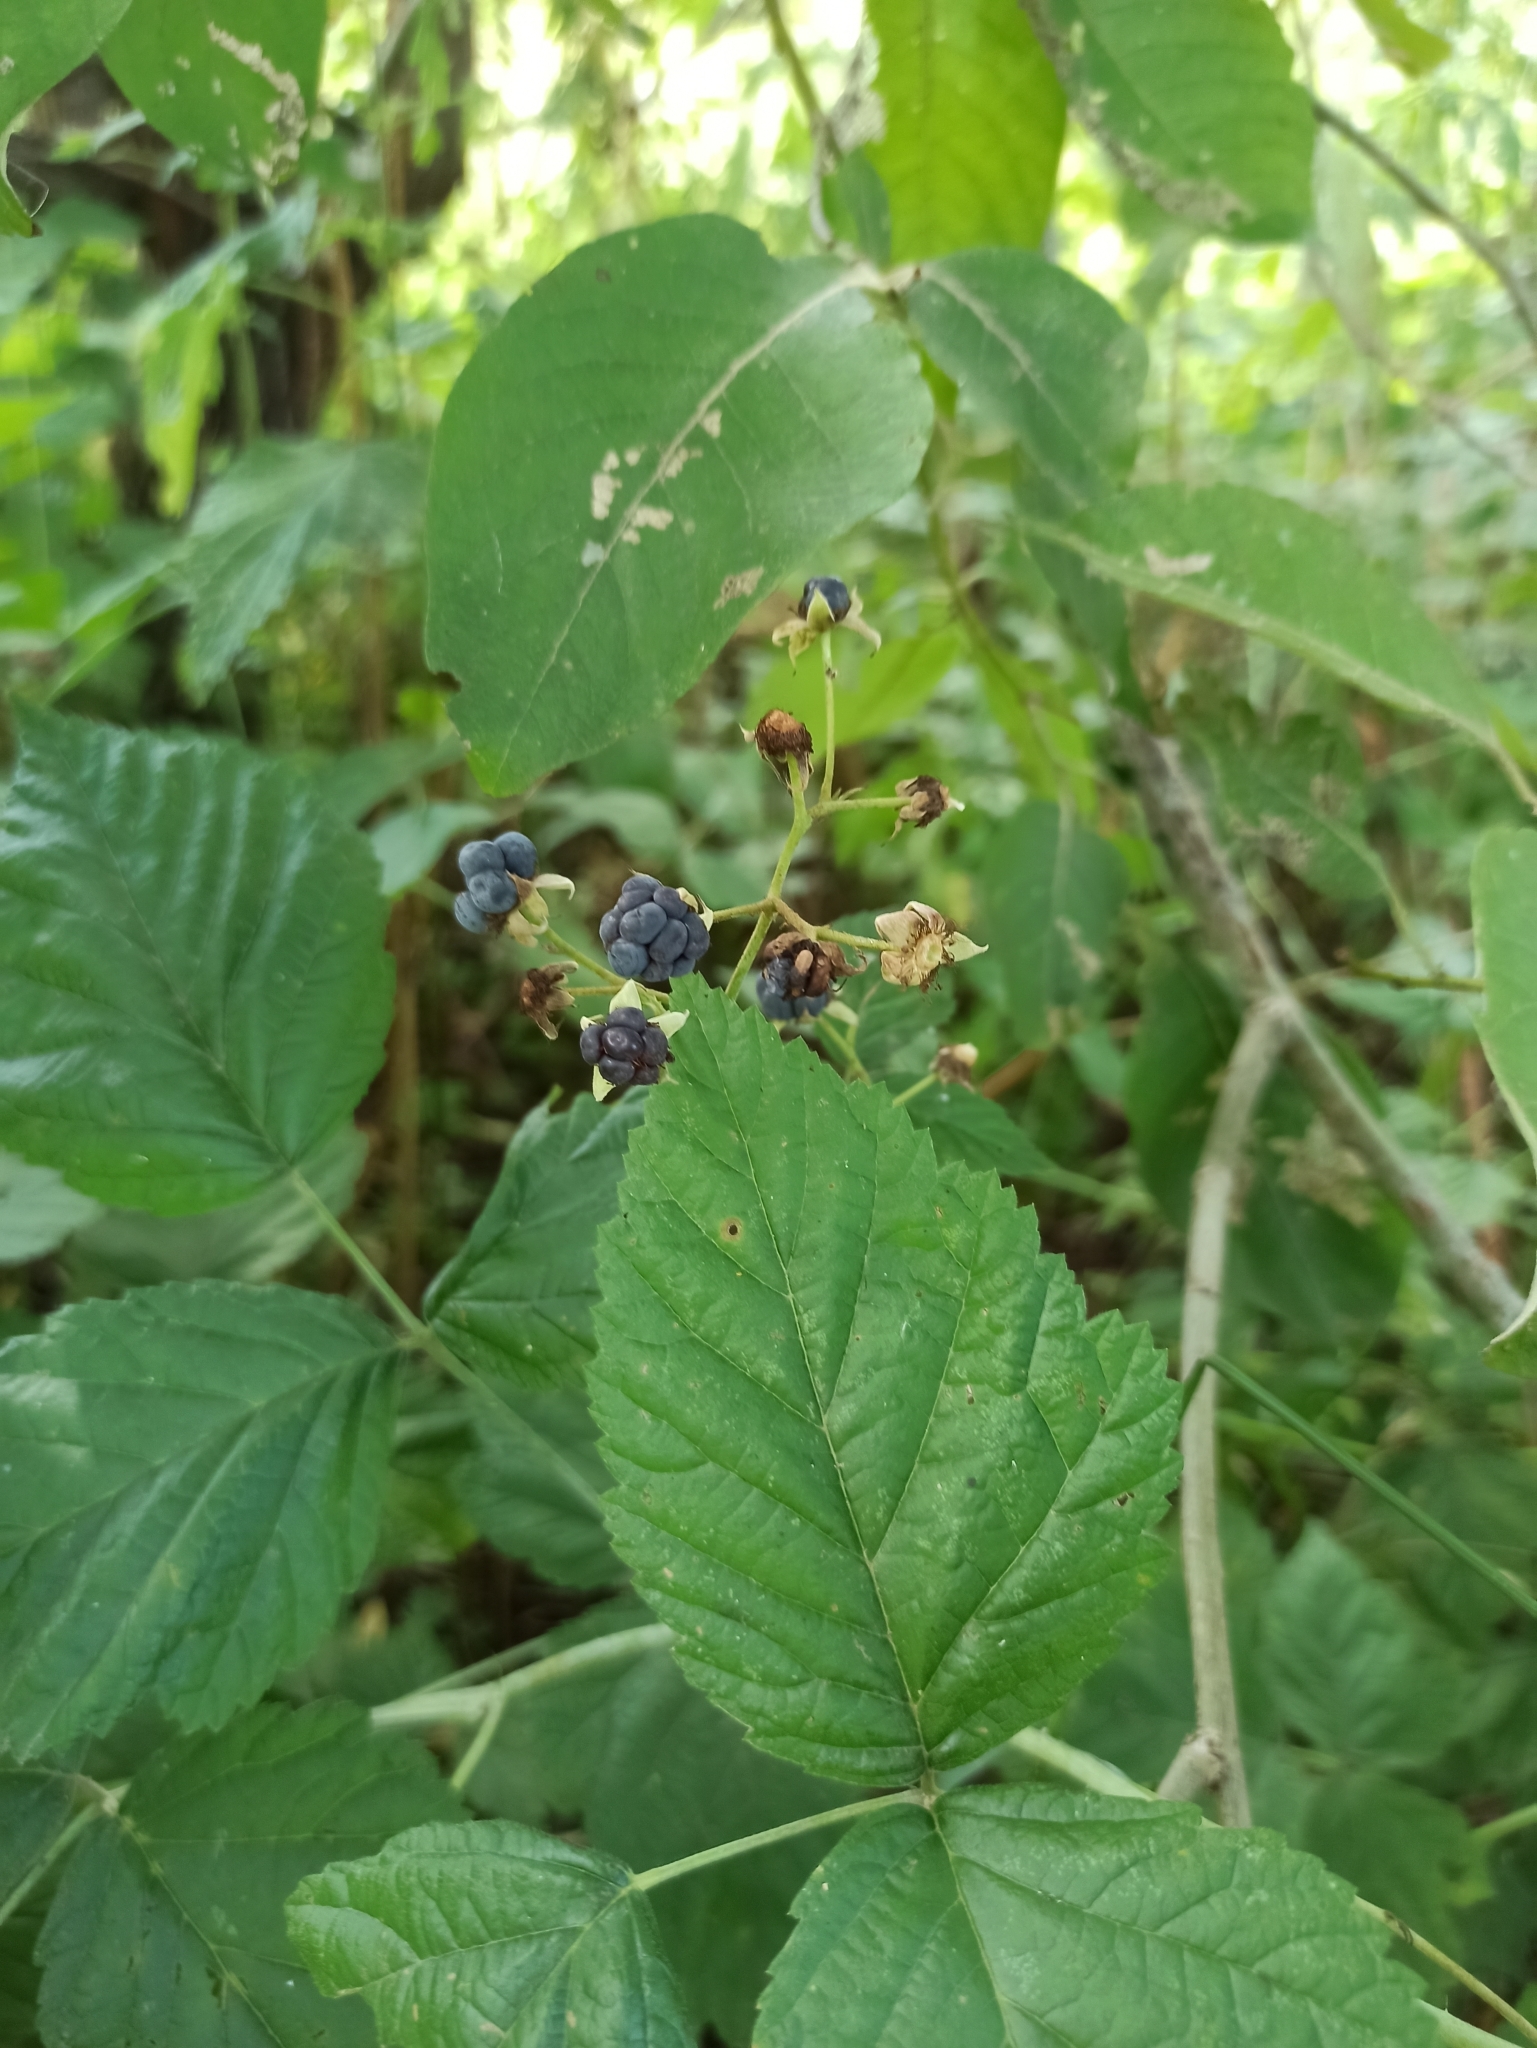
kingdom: Plantae
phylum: Tracheophyta
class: Magnoliopsida
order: Rosales
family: Rosaceae
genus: Rubus
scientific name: Rubus caesius
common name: Dewberry
